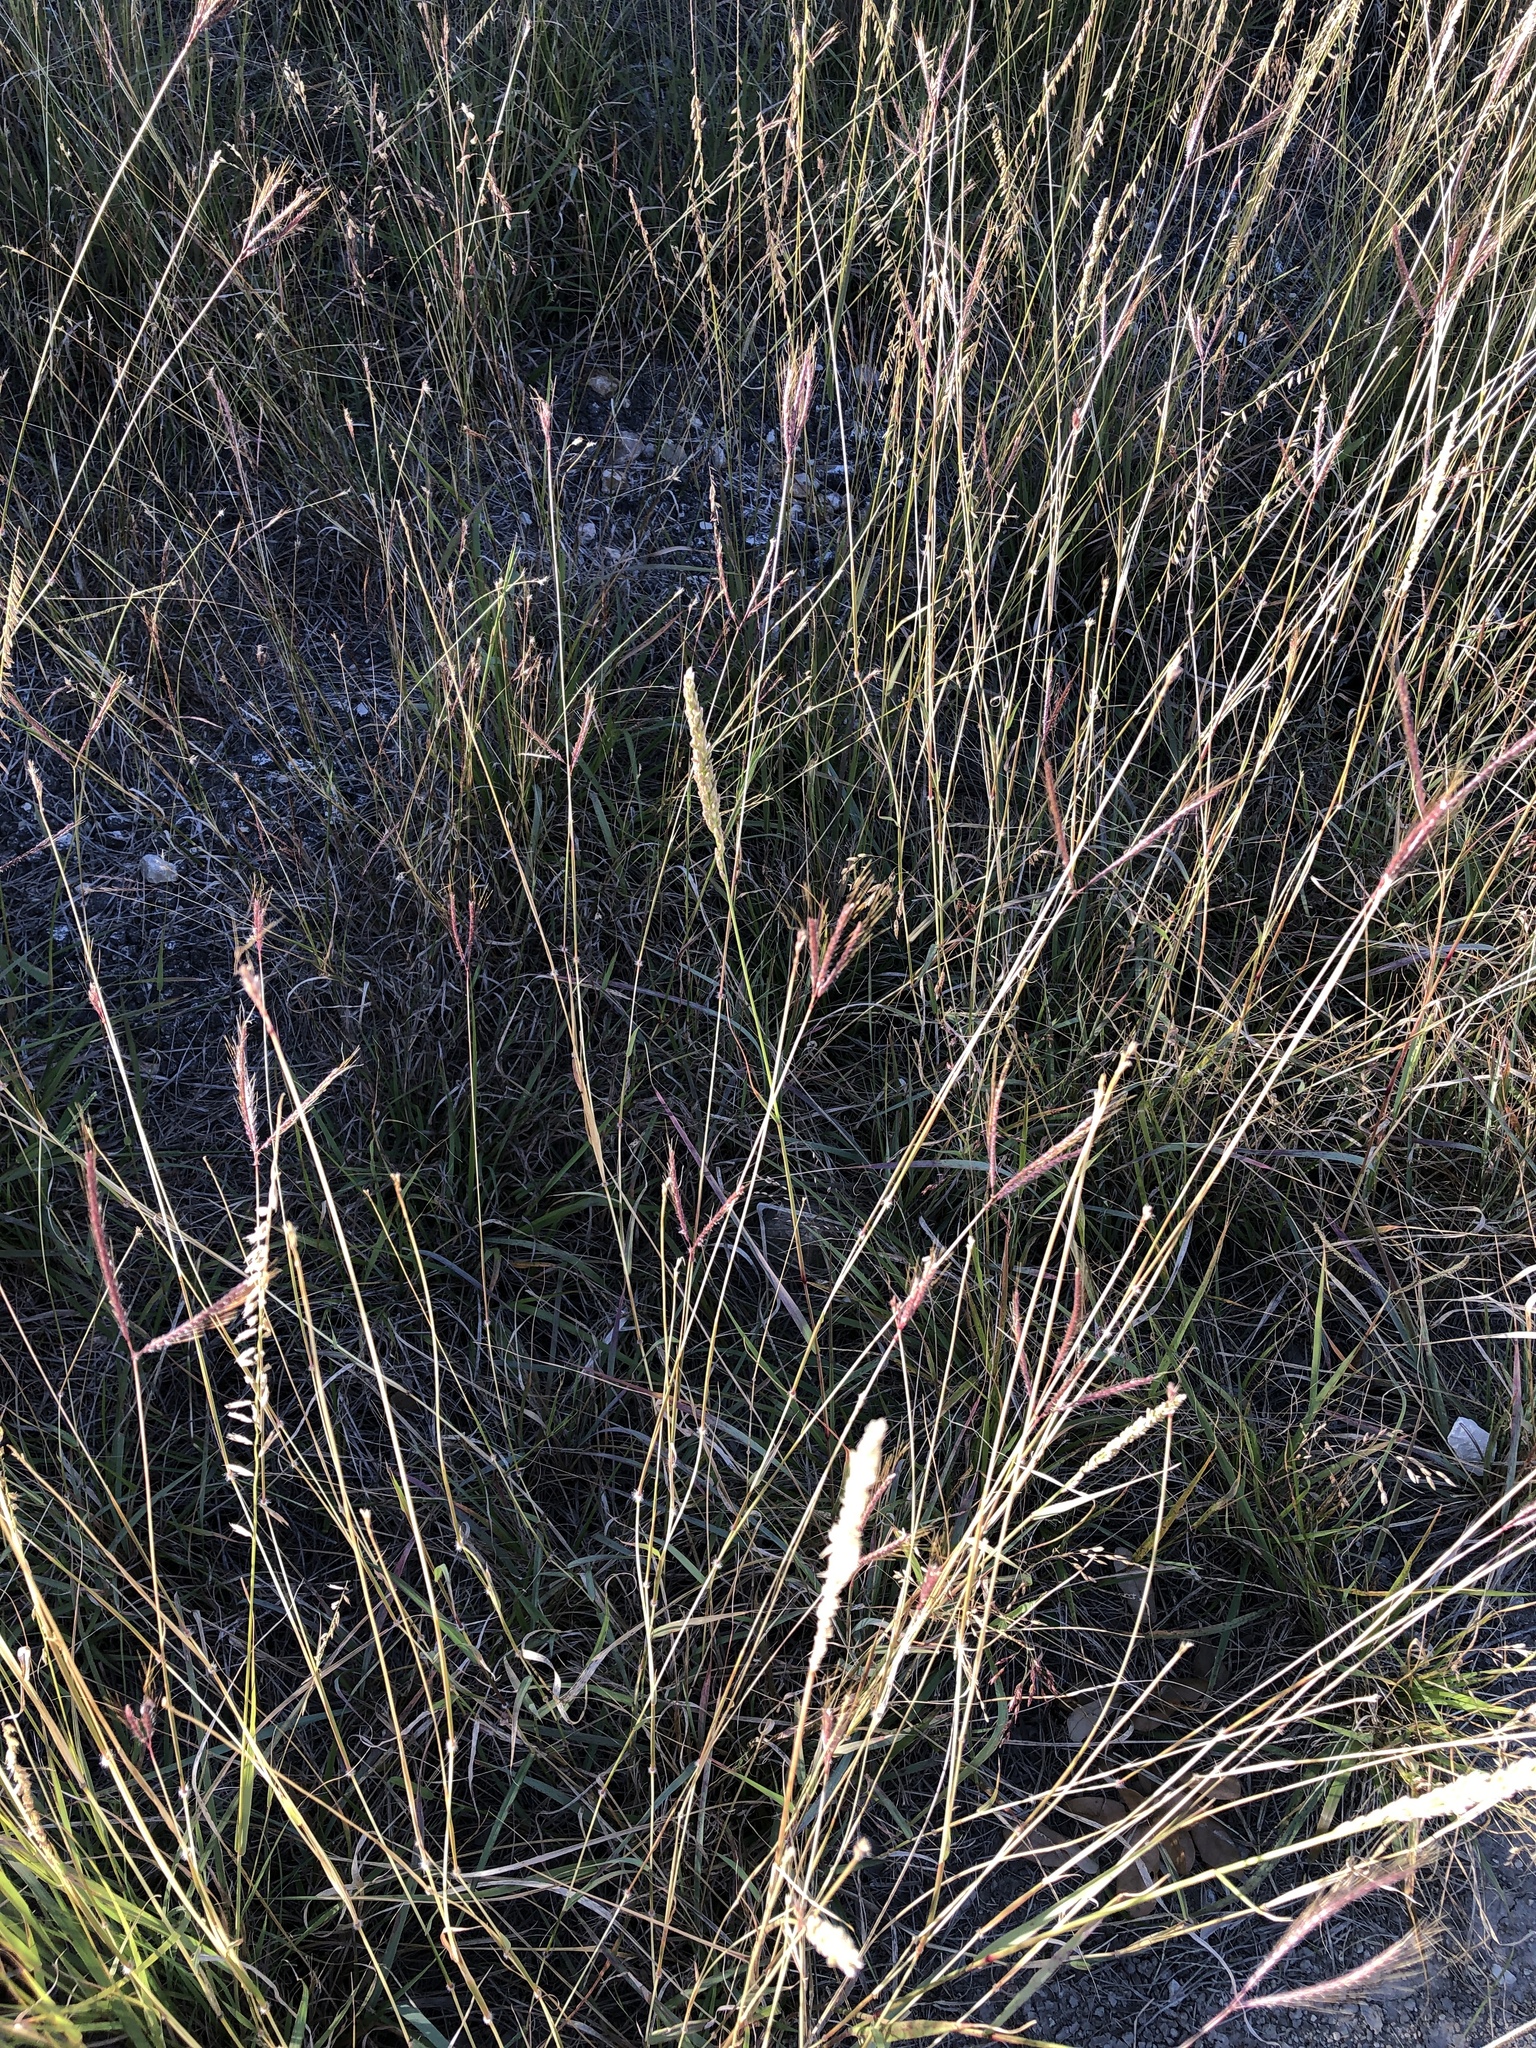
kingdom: Plantae
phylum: Tracheophyta
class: Liliopsida
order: Poales
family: Poaceae
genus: Dichanthium
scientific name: Dichanthium annulatum
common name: Kleberg's bluestem
